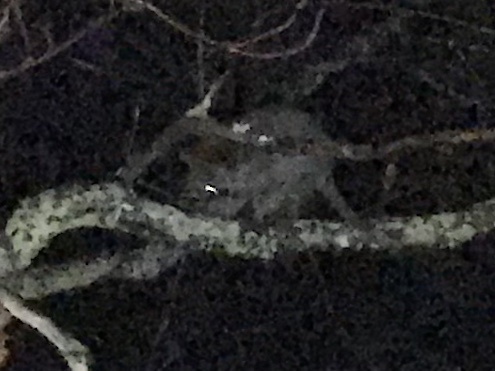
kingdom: Animalia
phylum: Chordata
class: Mammalia
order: Carnivora
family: Procyonidae
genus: Procyon
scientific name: Procyon lotor
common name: Raccoon
